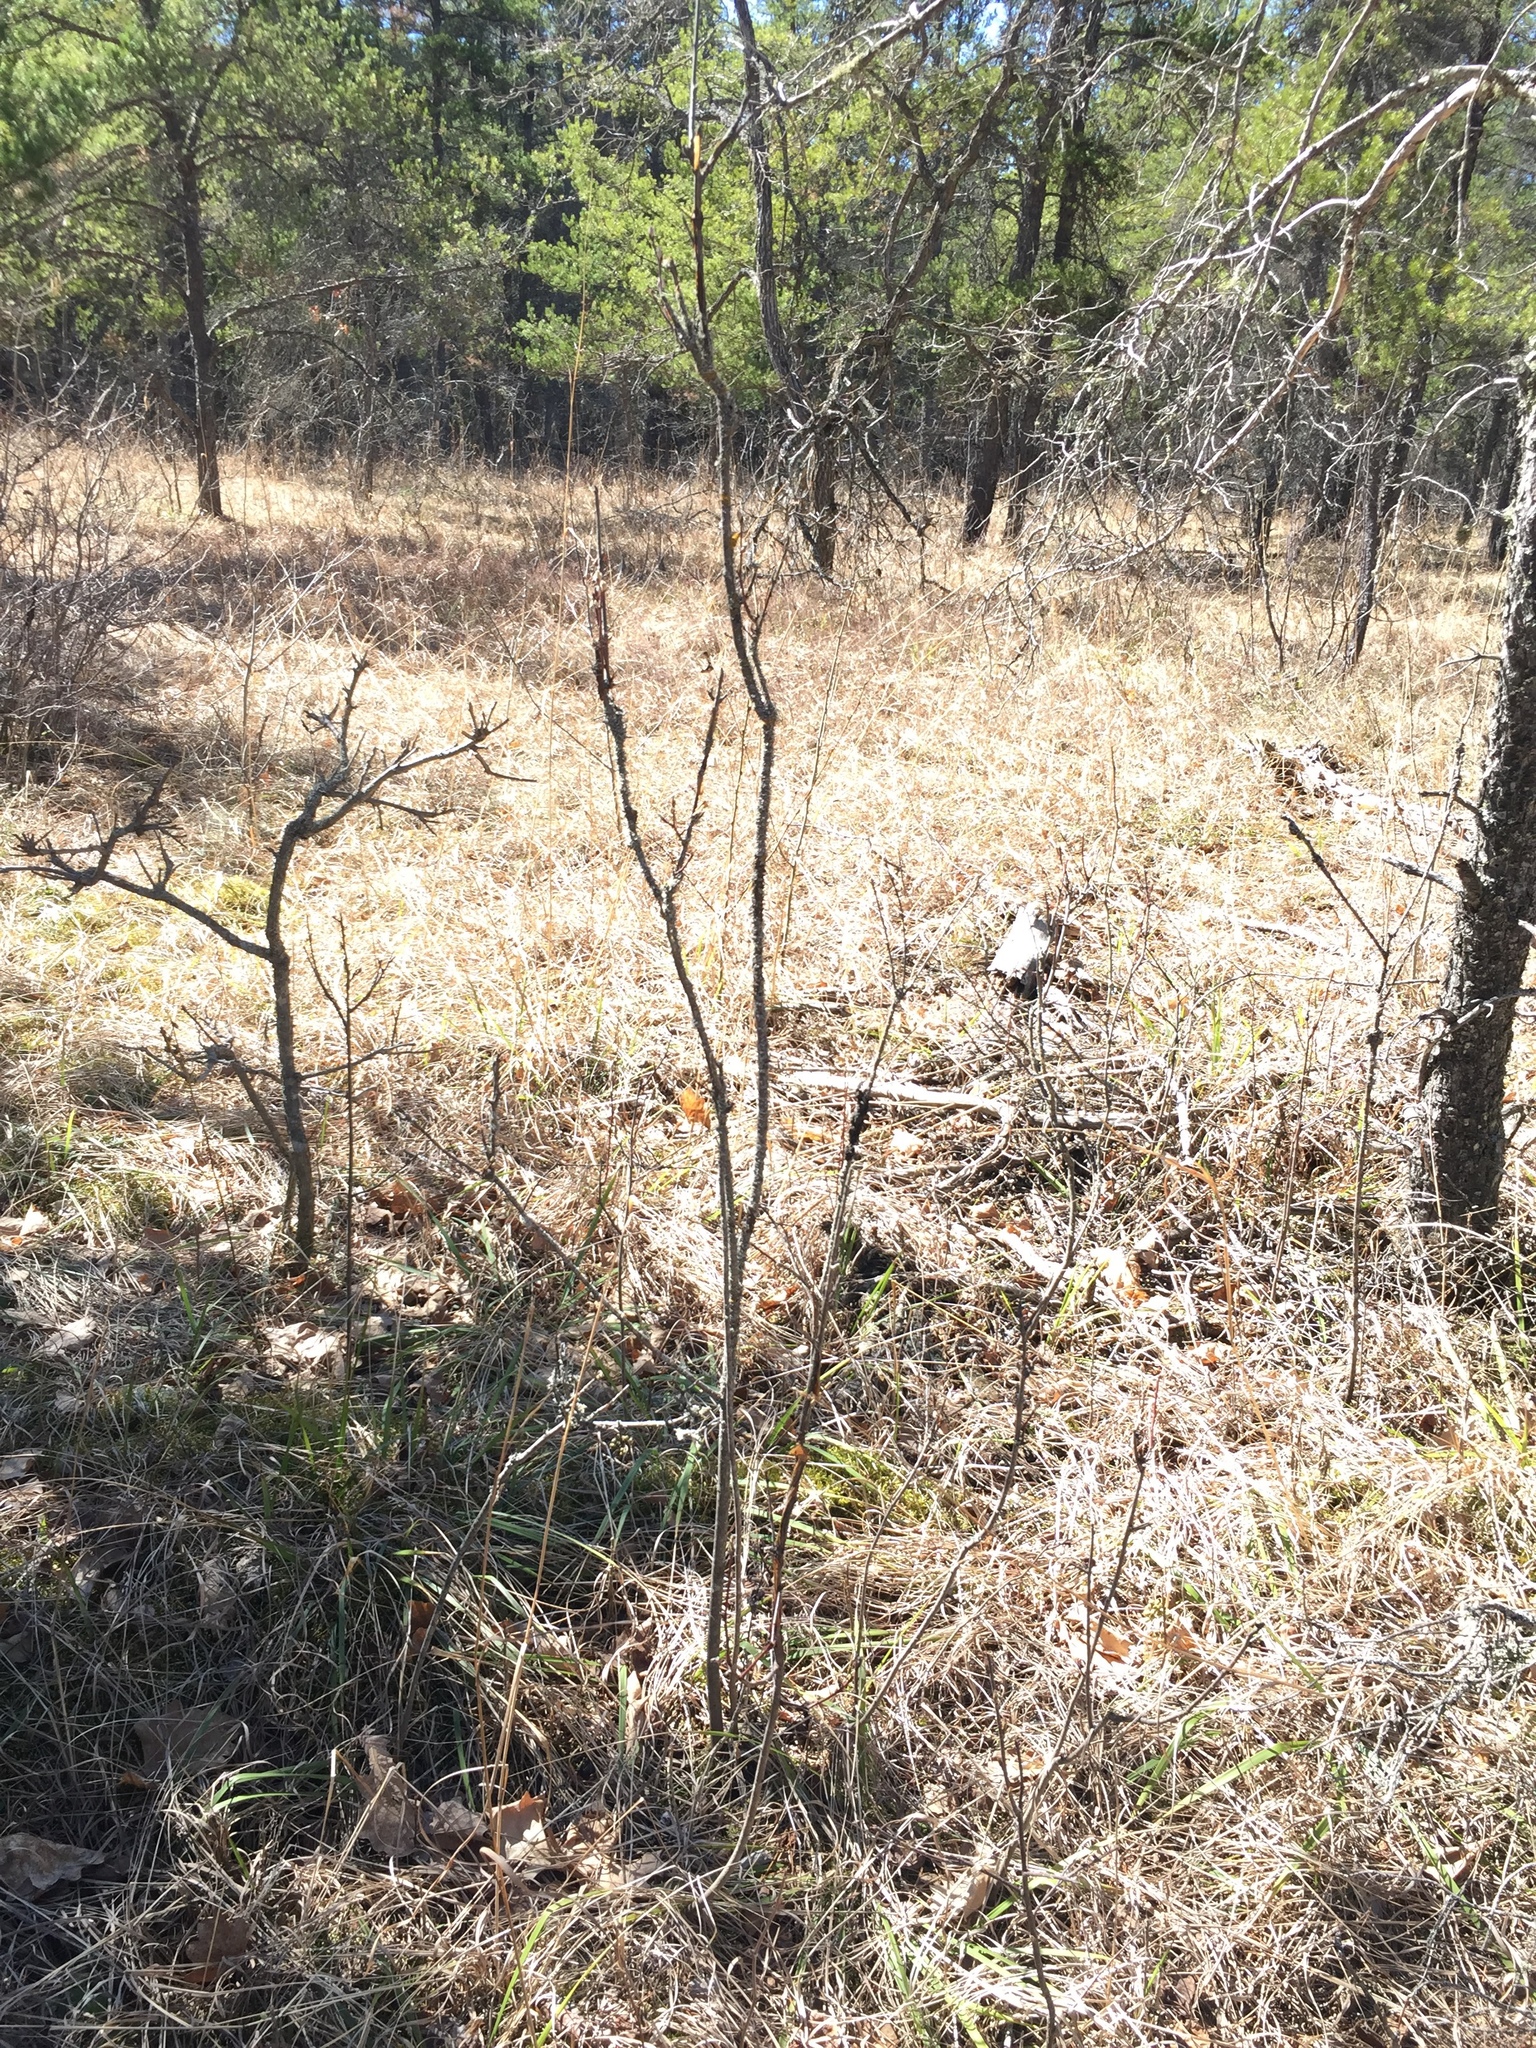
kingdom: Plantae
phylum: Tracheophyta
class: Magnoliopsida
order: Rosales
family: Rosaceae
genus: Amelanchier
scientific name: Amelanchier alnifolia
